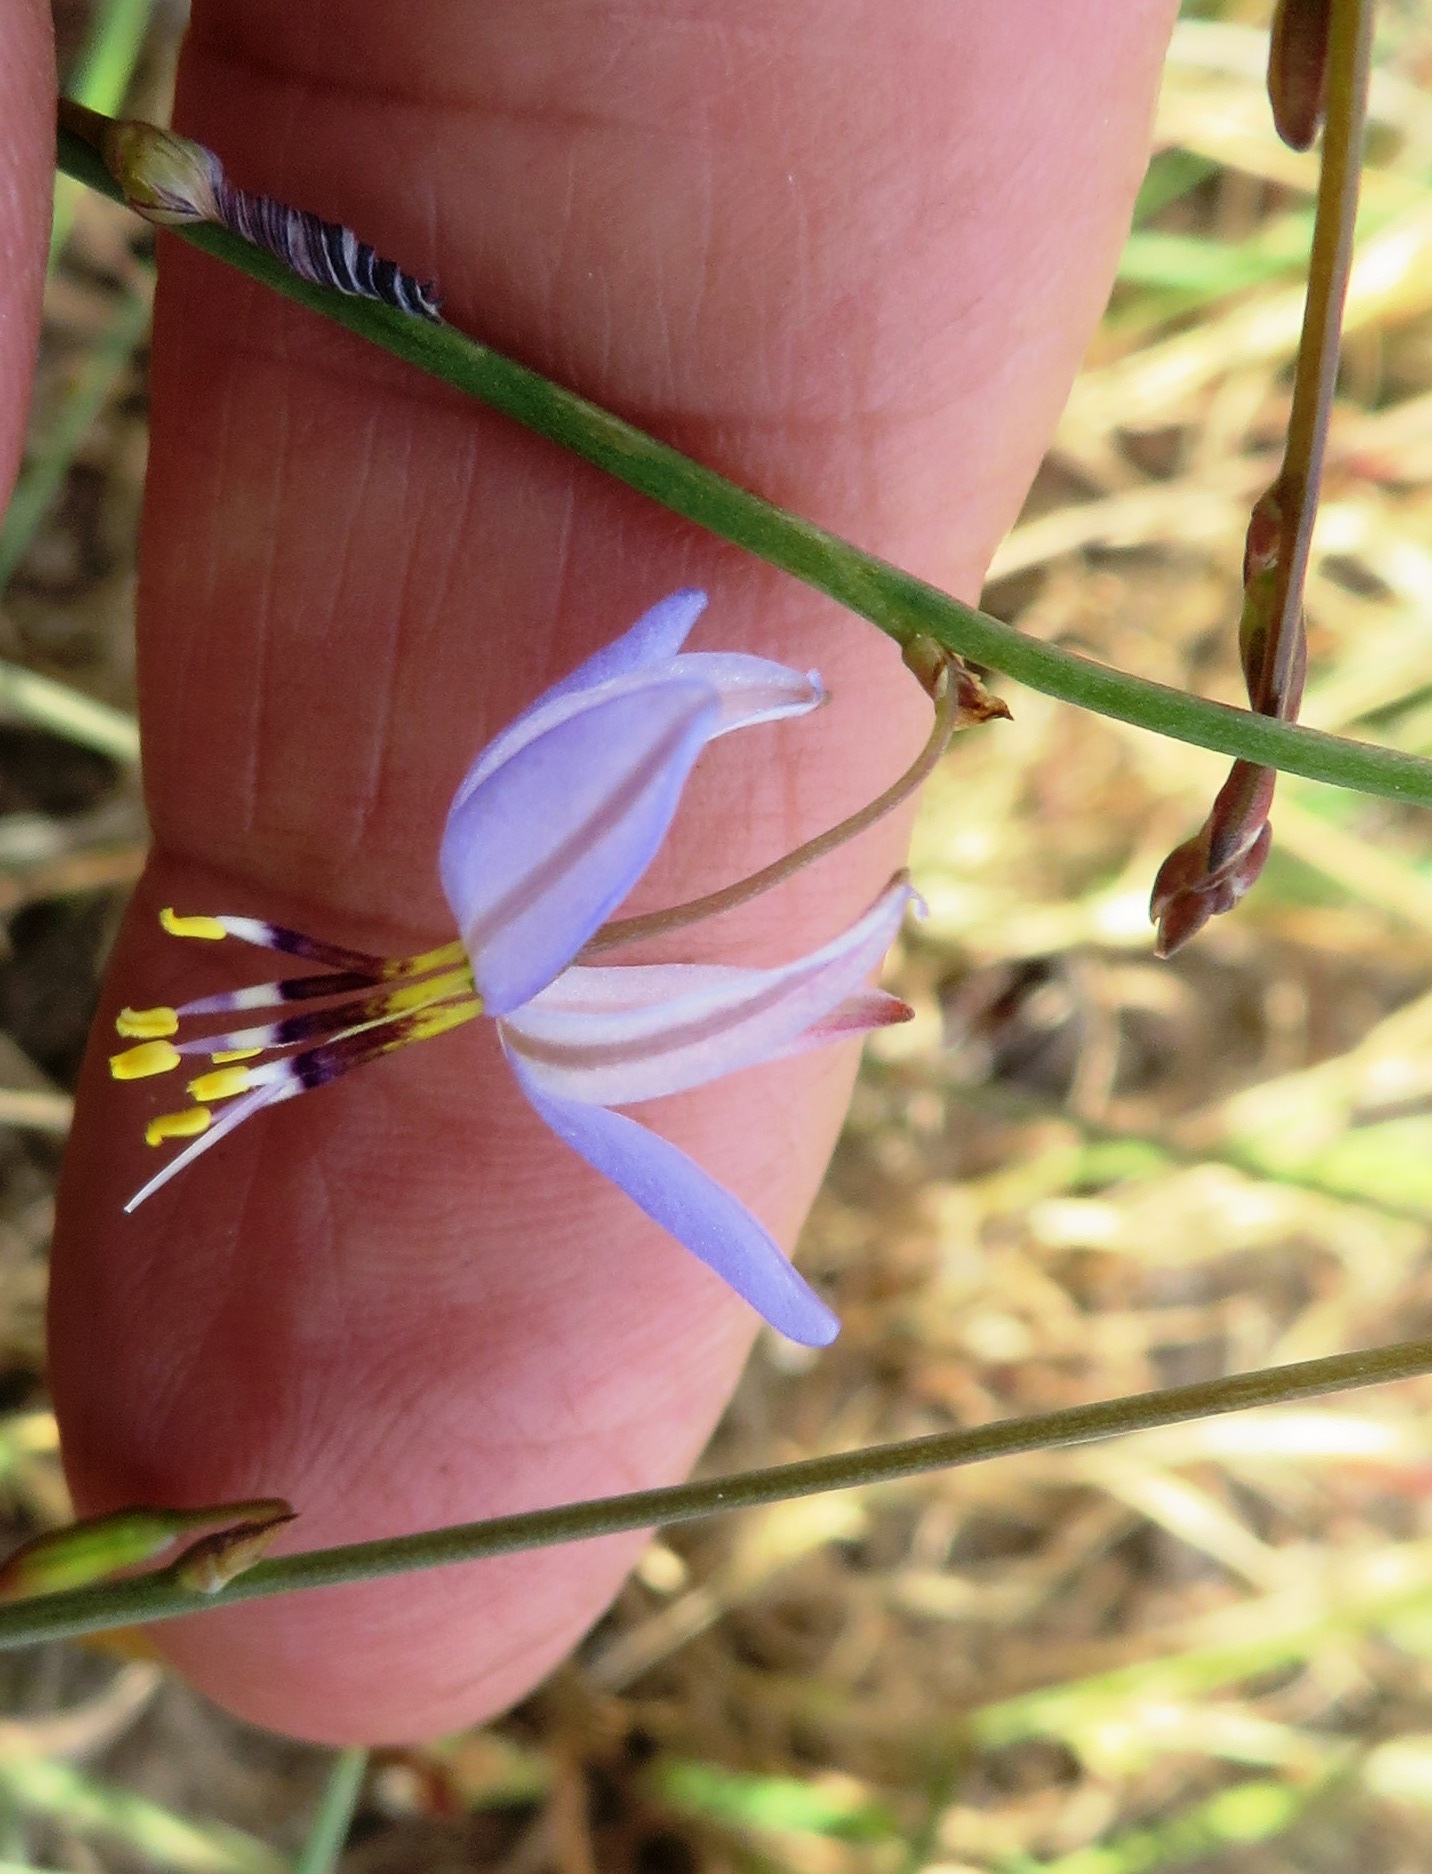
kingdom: Plantae
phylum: Tracheophyta
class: Liliopsida
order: Asparagales
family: Asphodelaceae
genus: Caesia
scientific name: Caesia contorta
